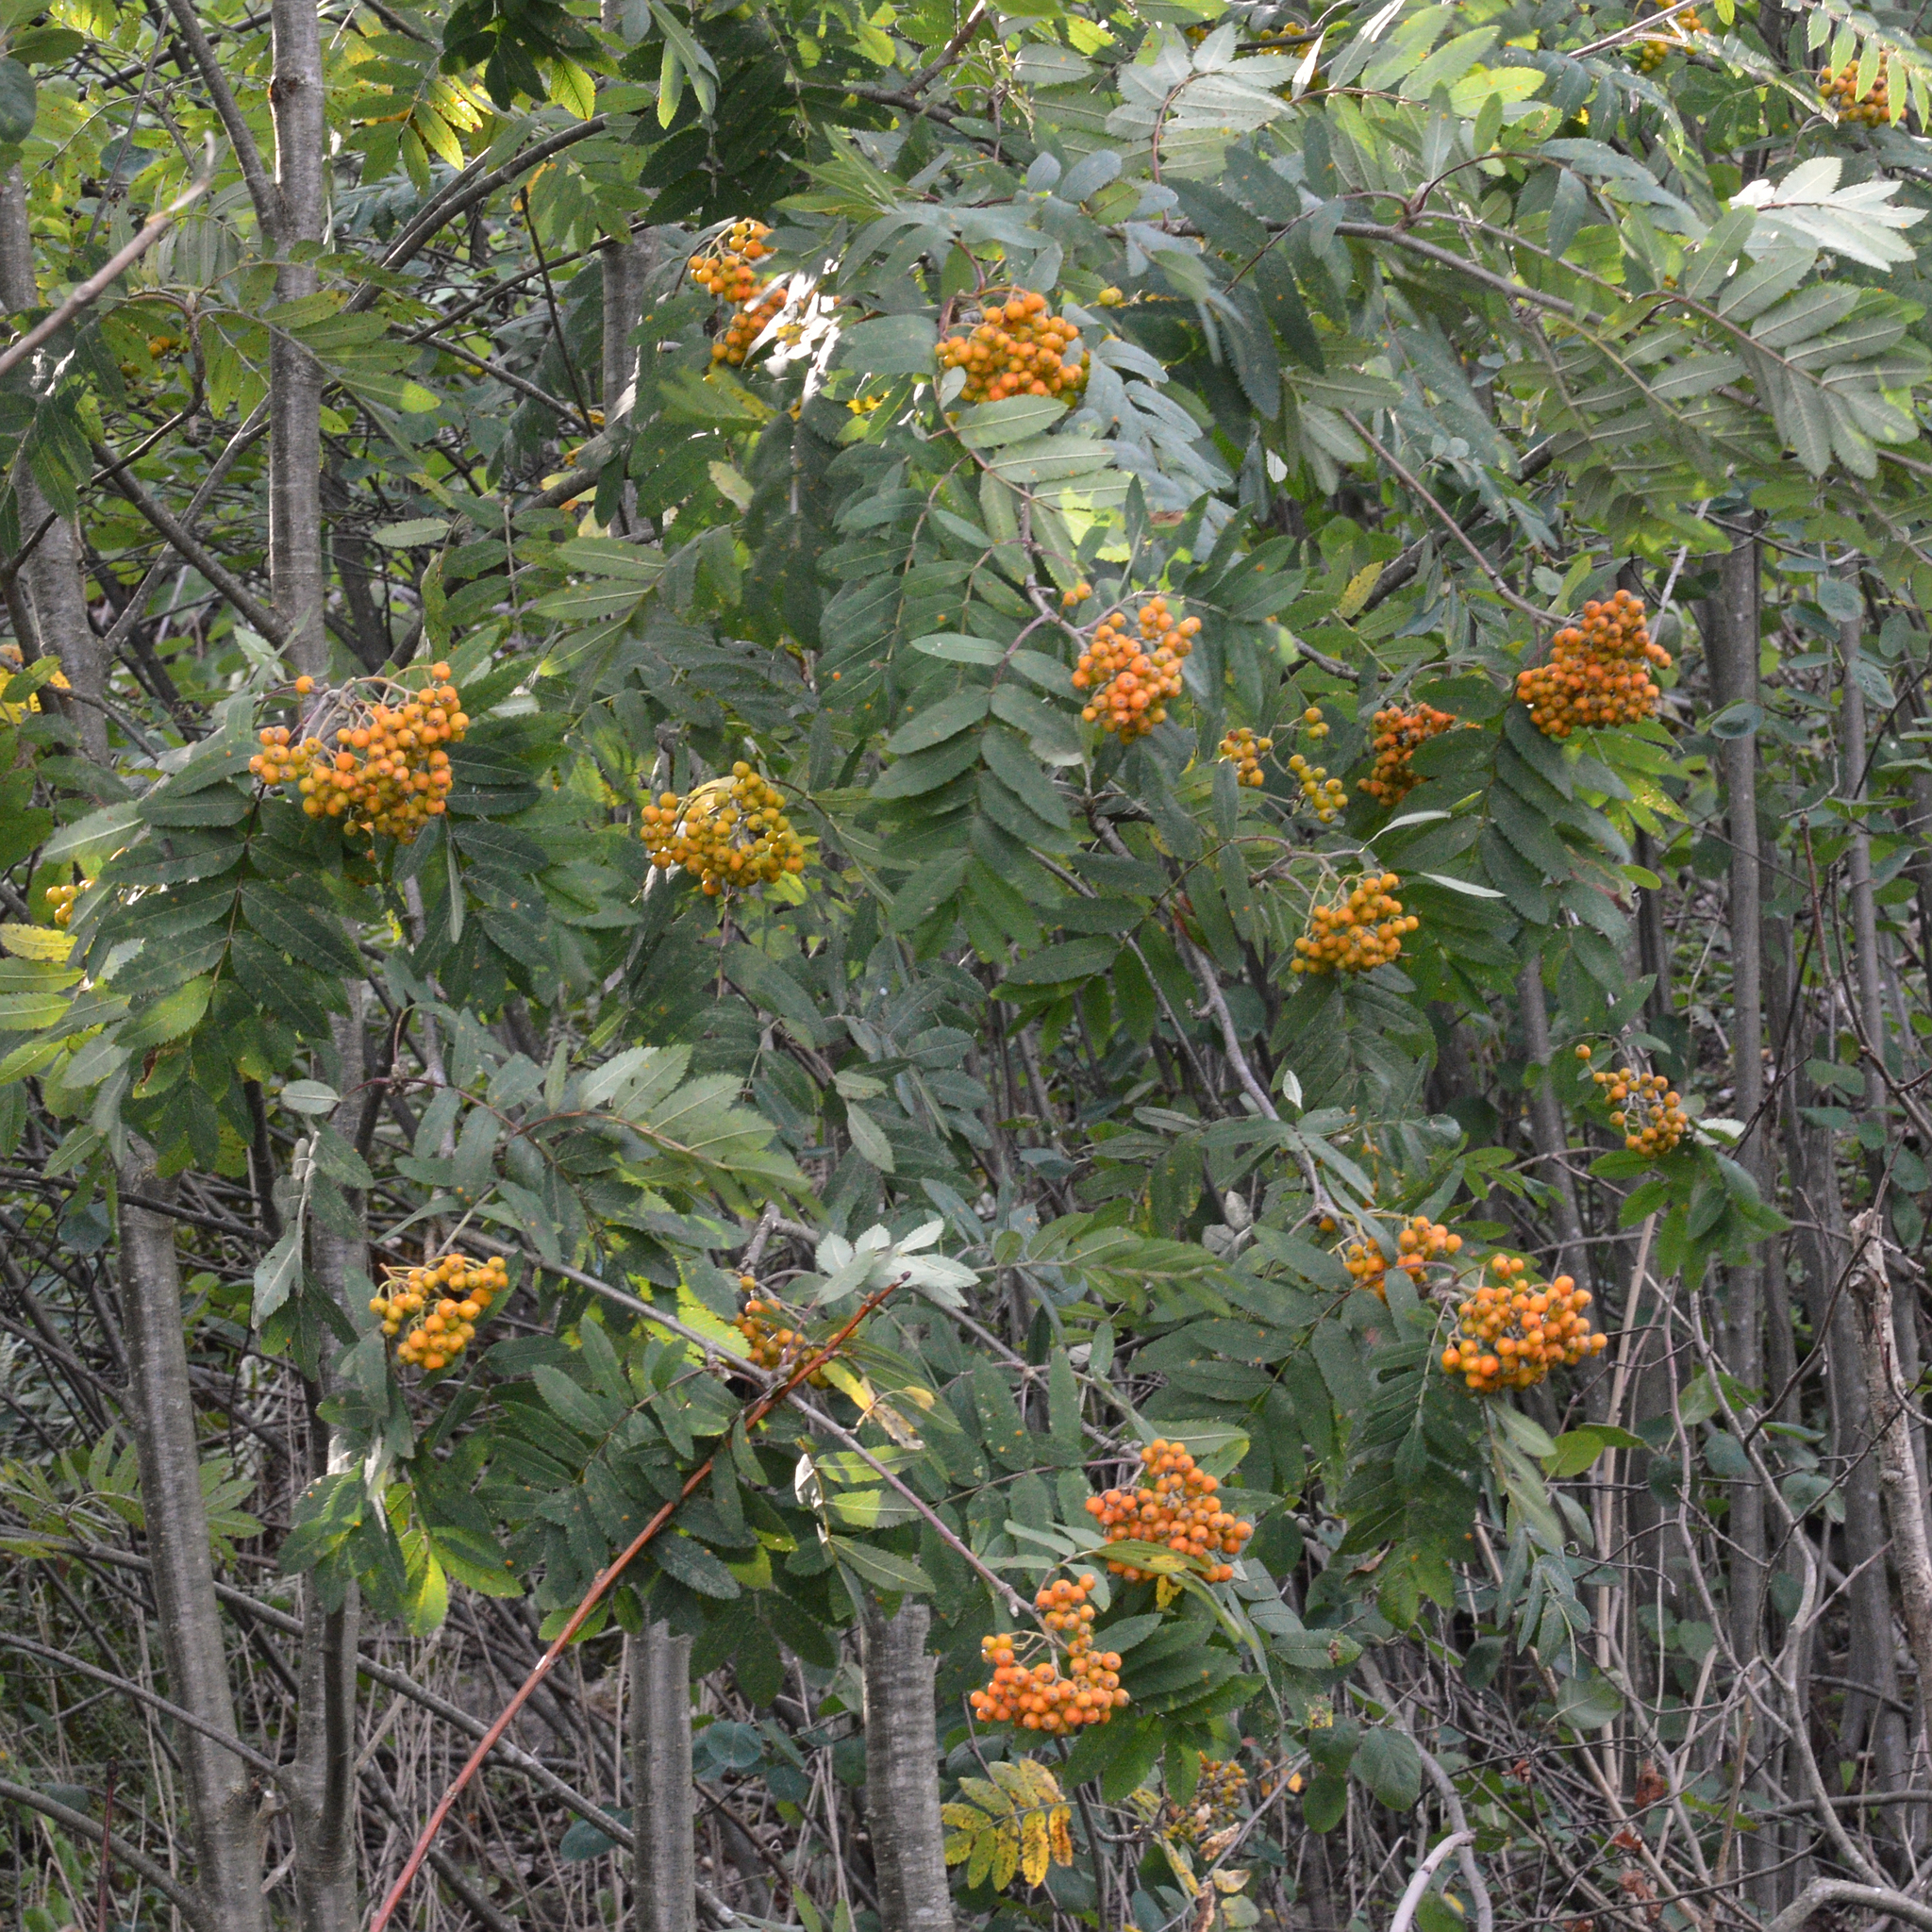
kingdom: Plantae
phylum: Tracheophyta
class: Magnoliopsida
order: Rosales
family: Rosaceae
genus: Sorbus
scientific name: Sorbus aucuparia
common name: Rowan
